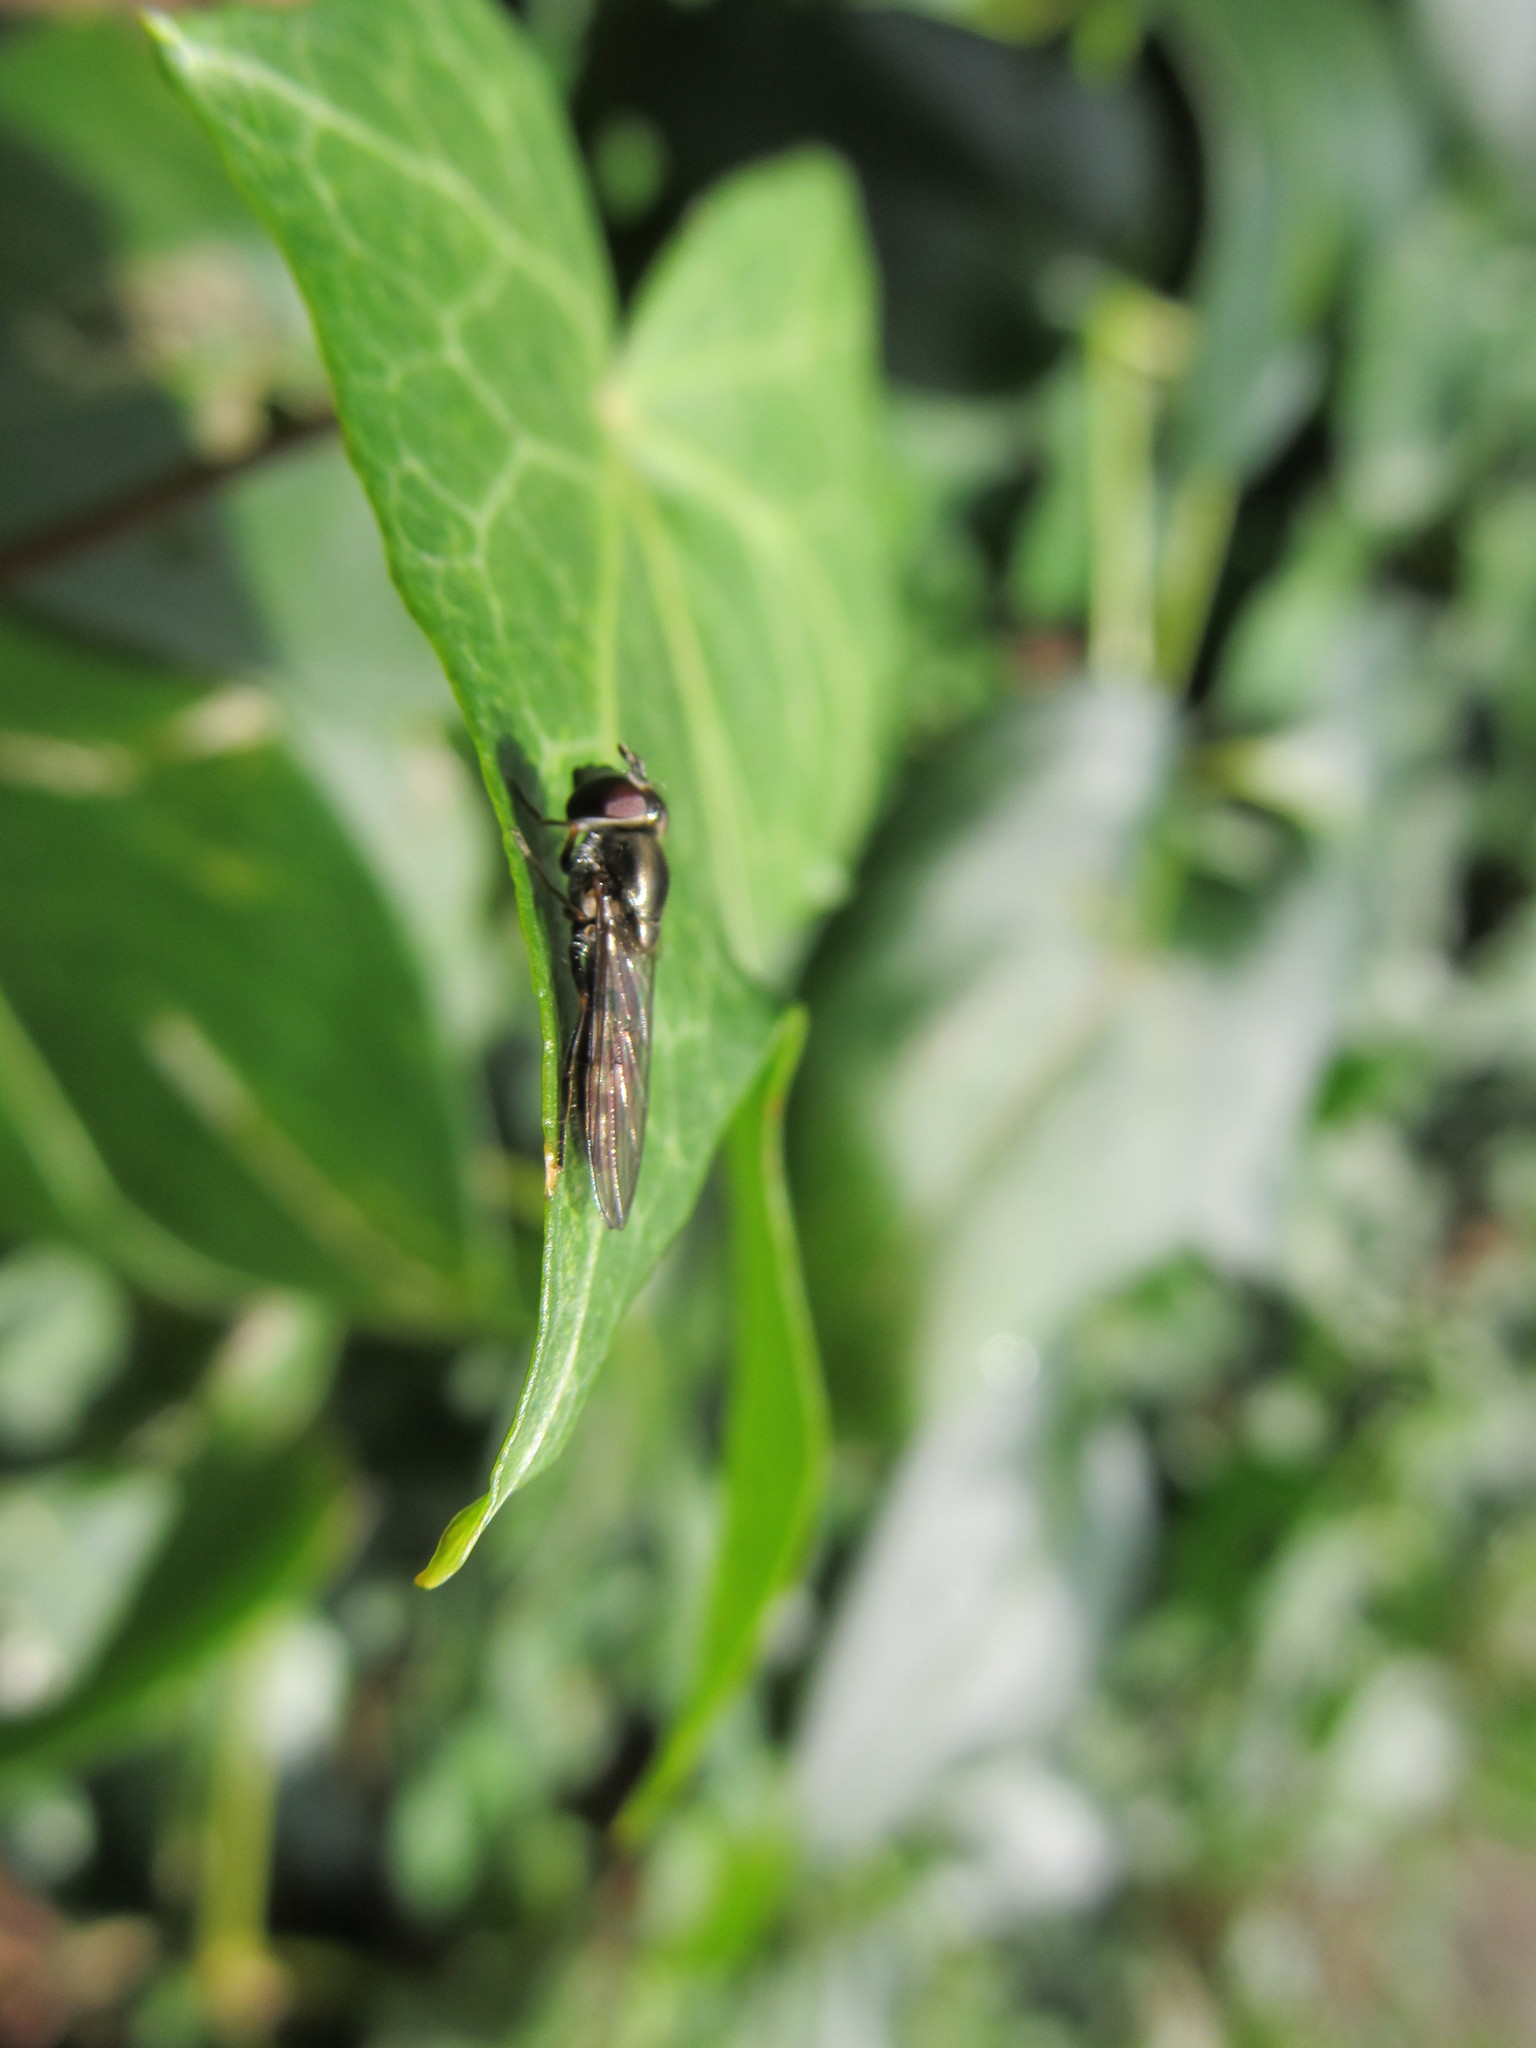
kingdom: Animalia
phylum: Arthropoda
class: Insecta
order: Diptera
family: Syrphidae
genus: Platycheirus
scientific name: Platycheirus trichopus
